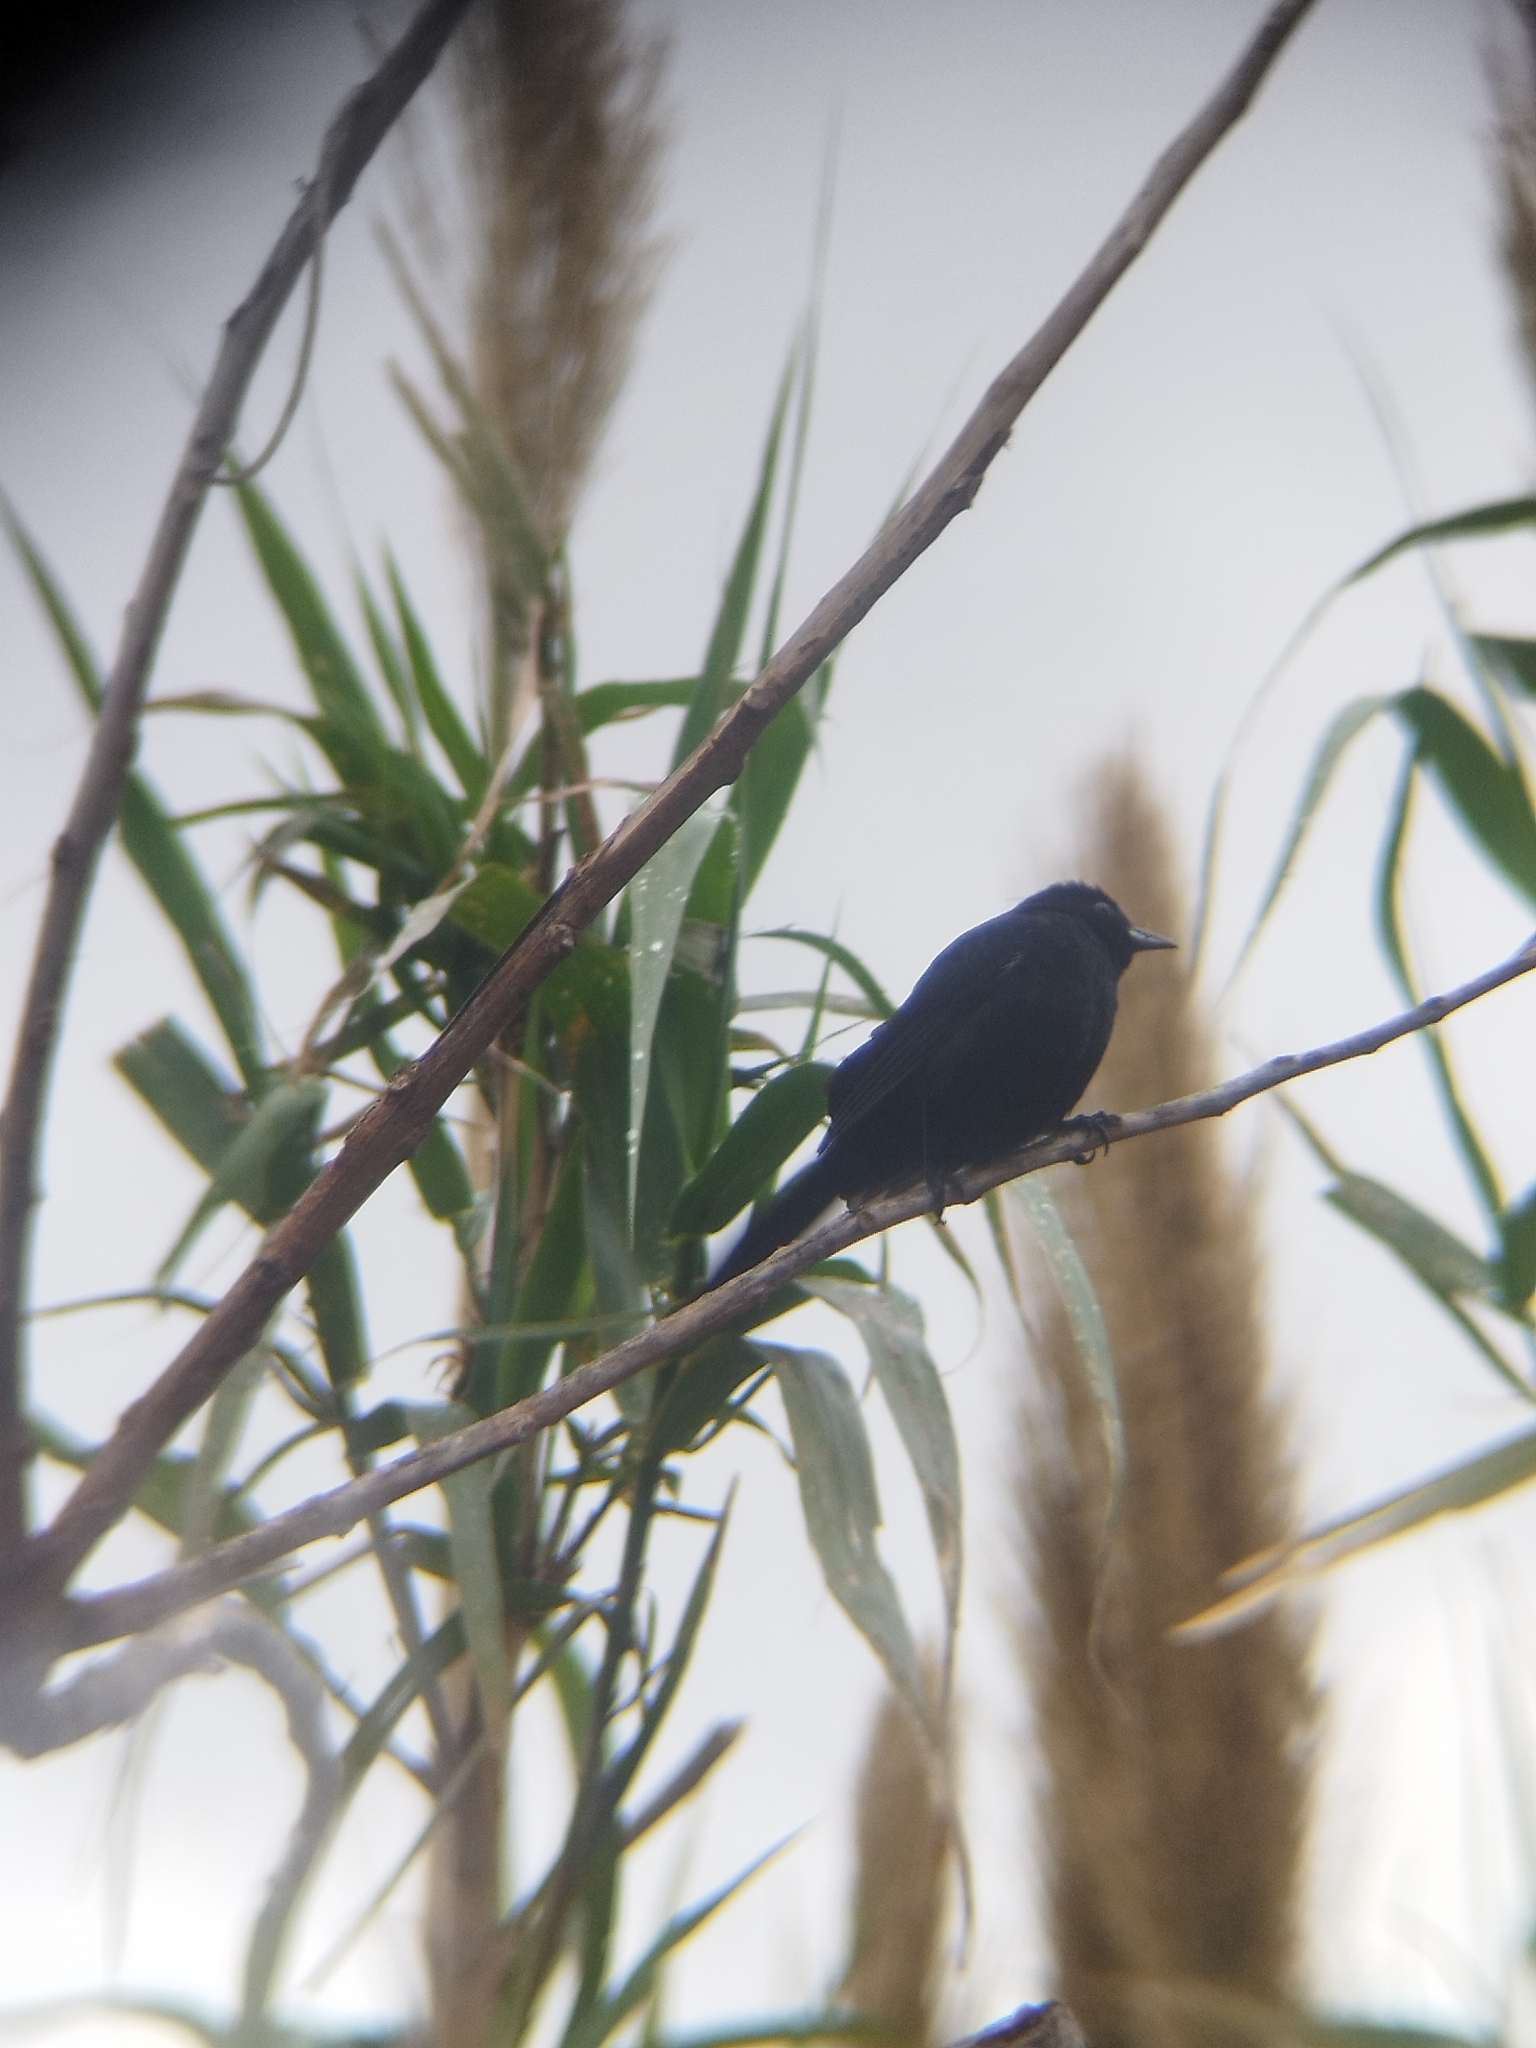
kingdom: Animalia
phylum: Chordata
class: Aves
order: Passeriformes
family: Thraupidae
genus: Tachyphonus
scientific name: Tachyphonus rufus
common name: White-lined tanager
